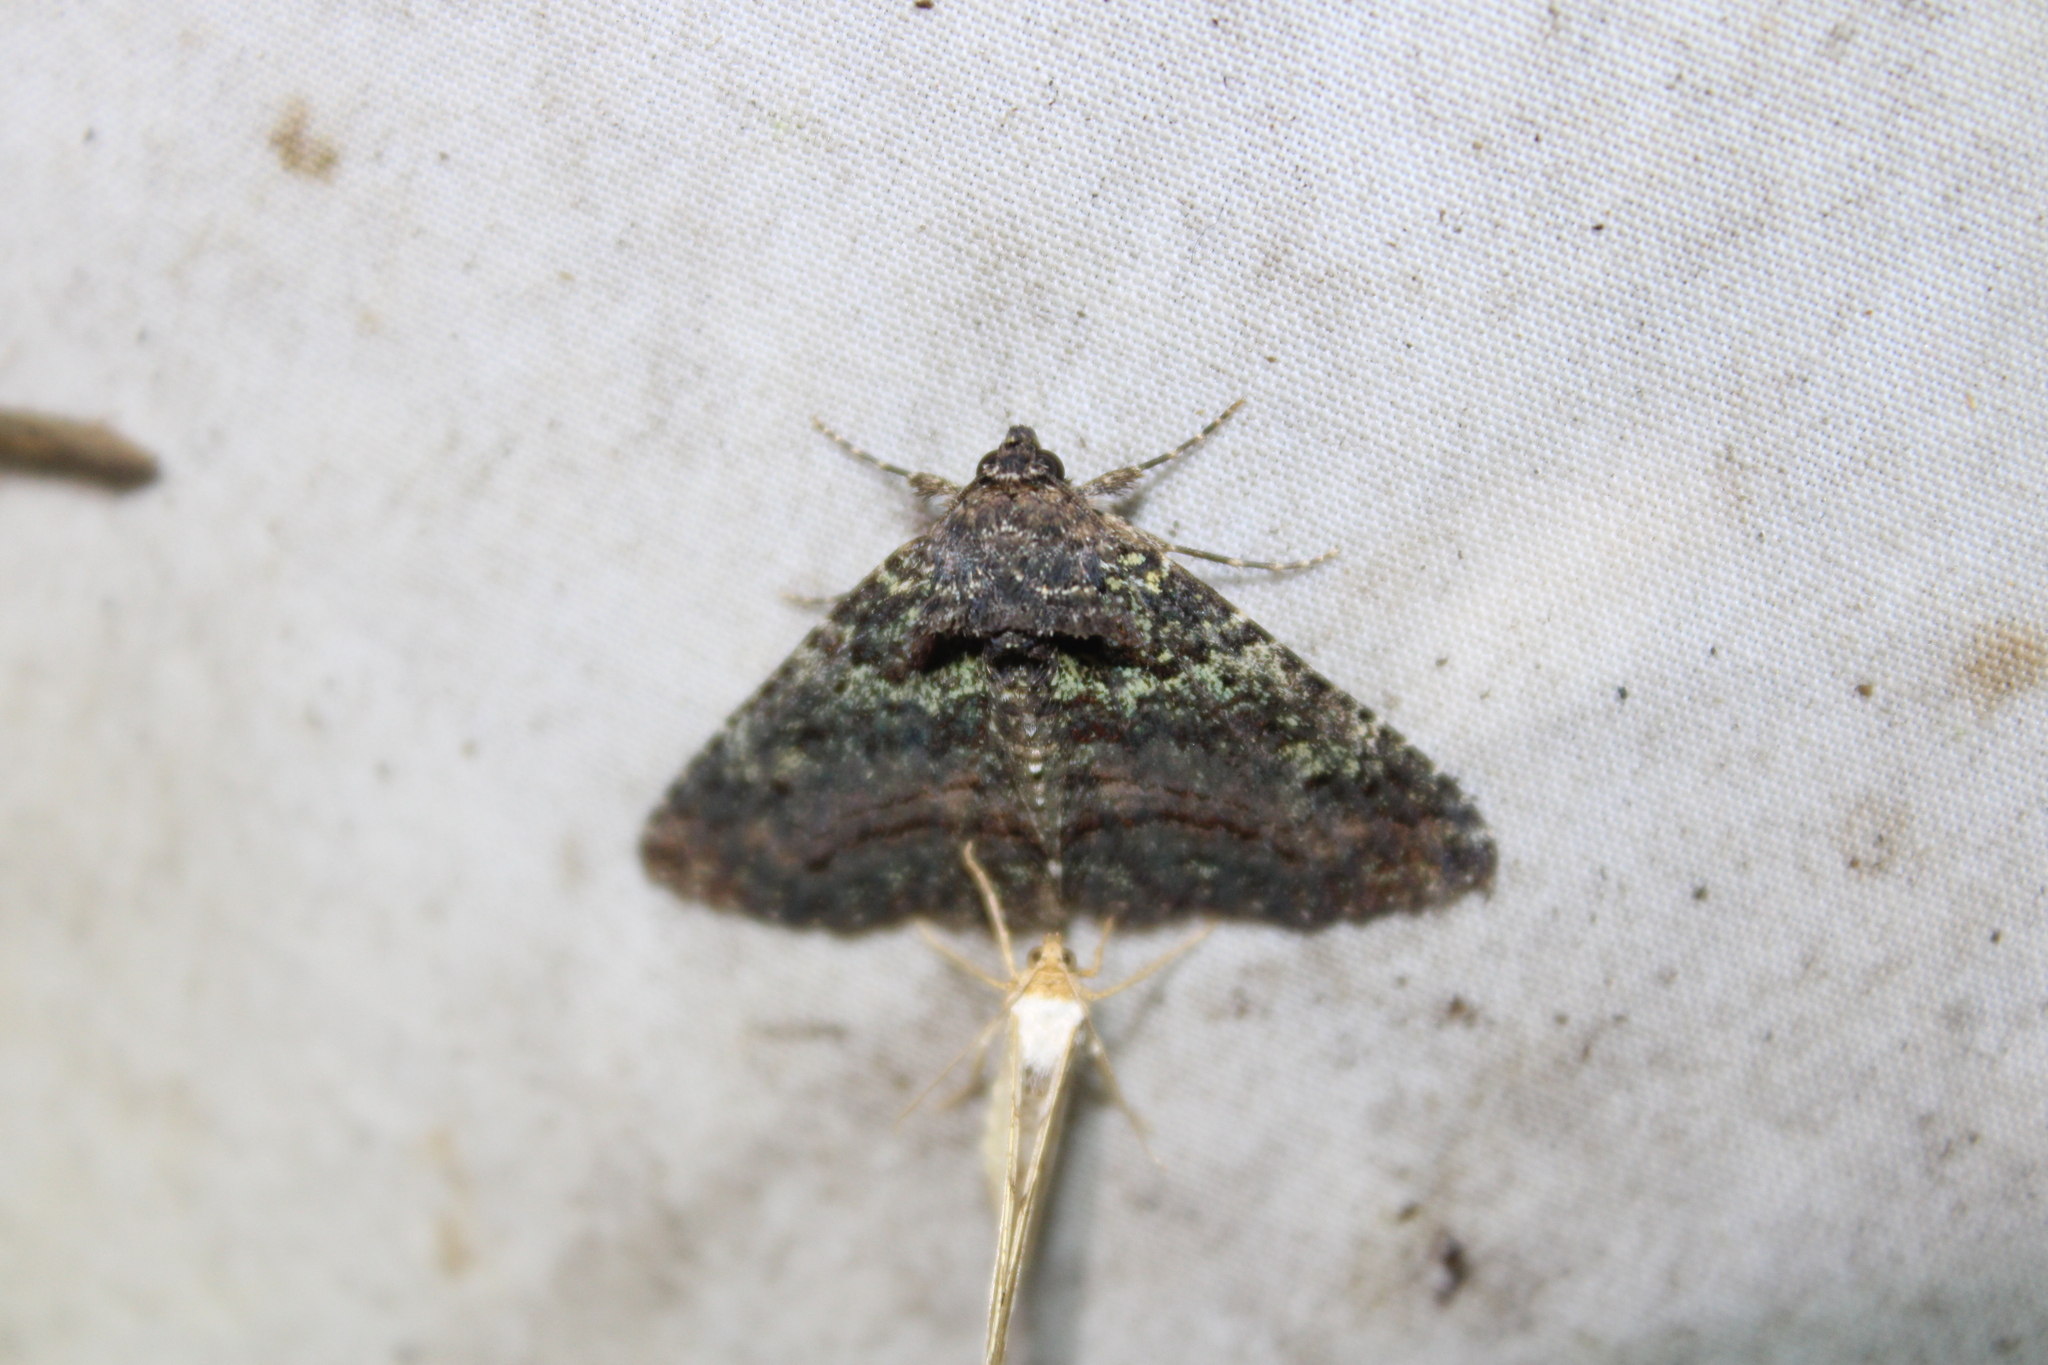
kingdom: Animalia
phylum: Arthropoda
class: Insecta
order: Lepidoptera
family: Erebidae
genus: Zale
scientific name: Zale aeruginosa
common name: Green-dusted zale moth
